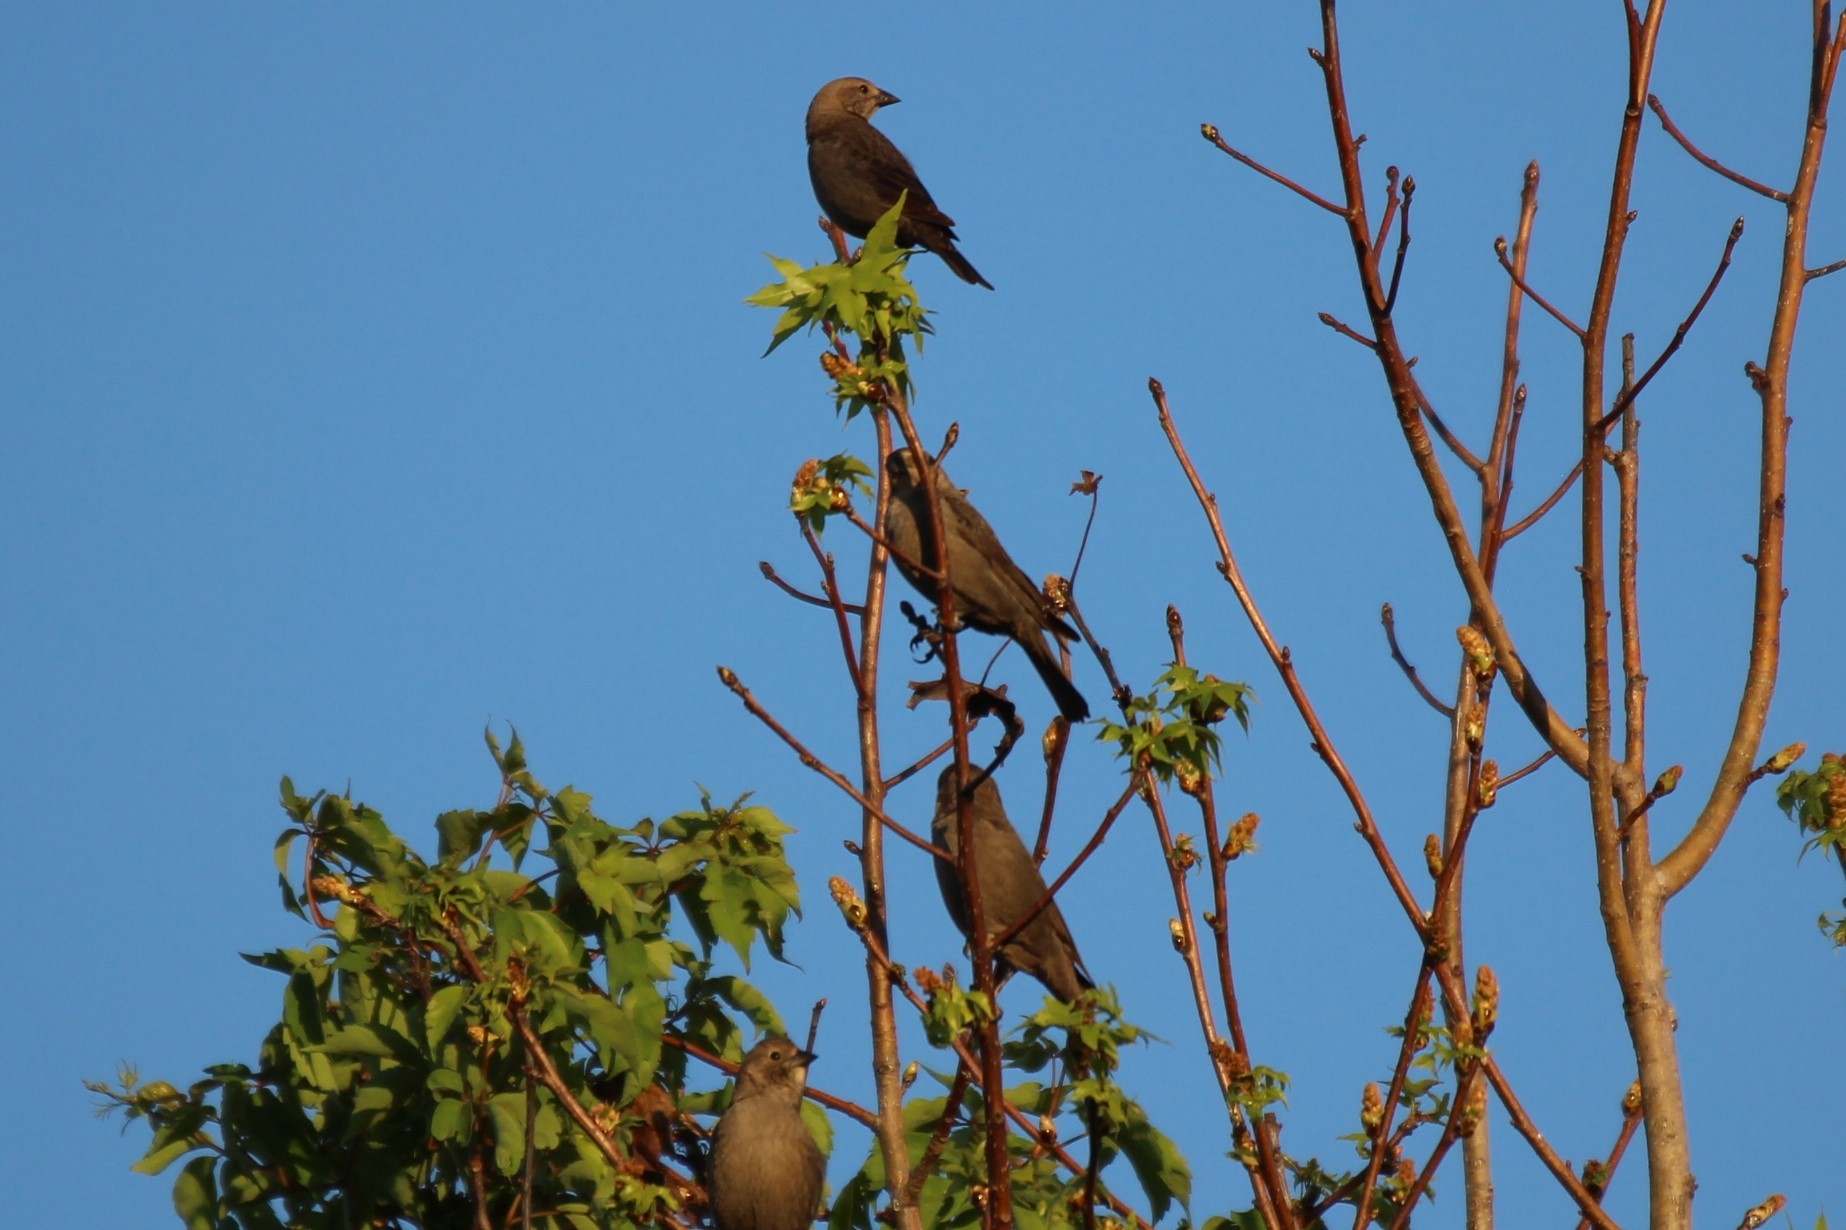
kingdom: Animalia
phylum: Chordata
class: Aves
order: Passeriformes
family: Icteridae
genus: Molothrus
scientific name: Molothrus ater
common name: Brown-headed cowbird
